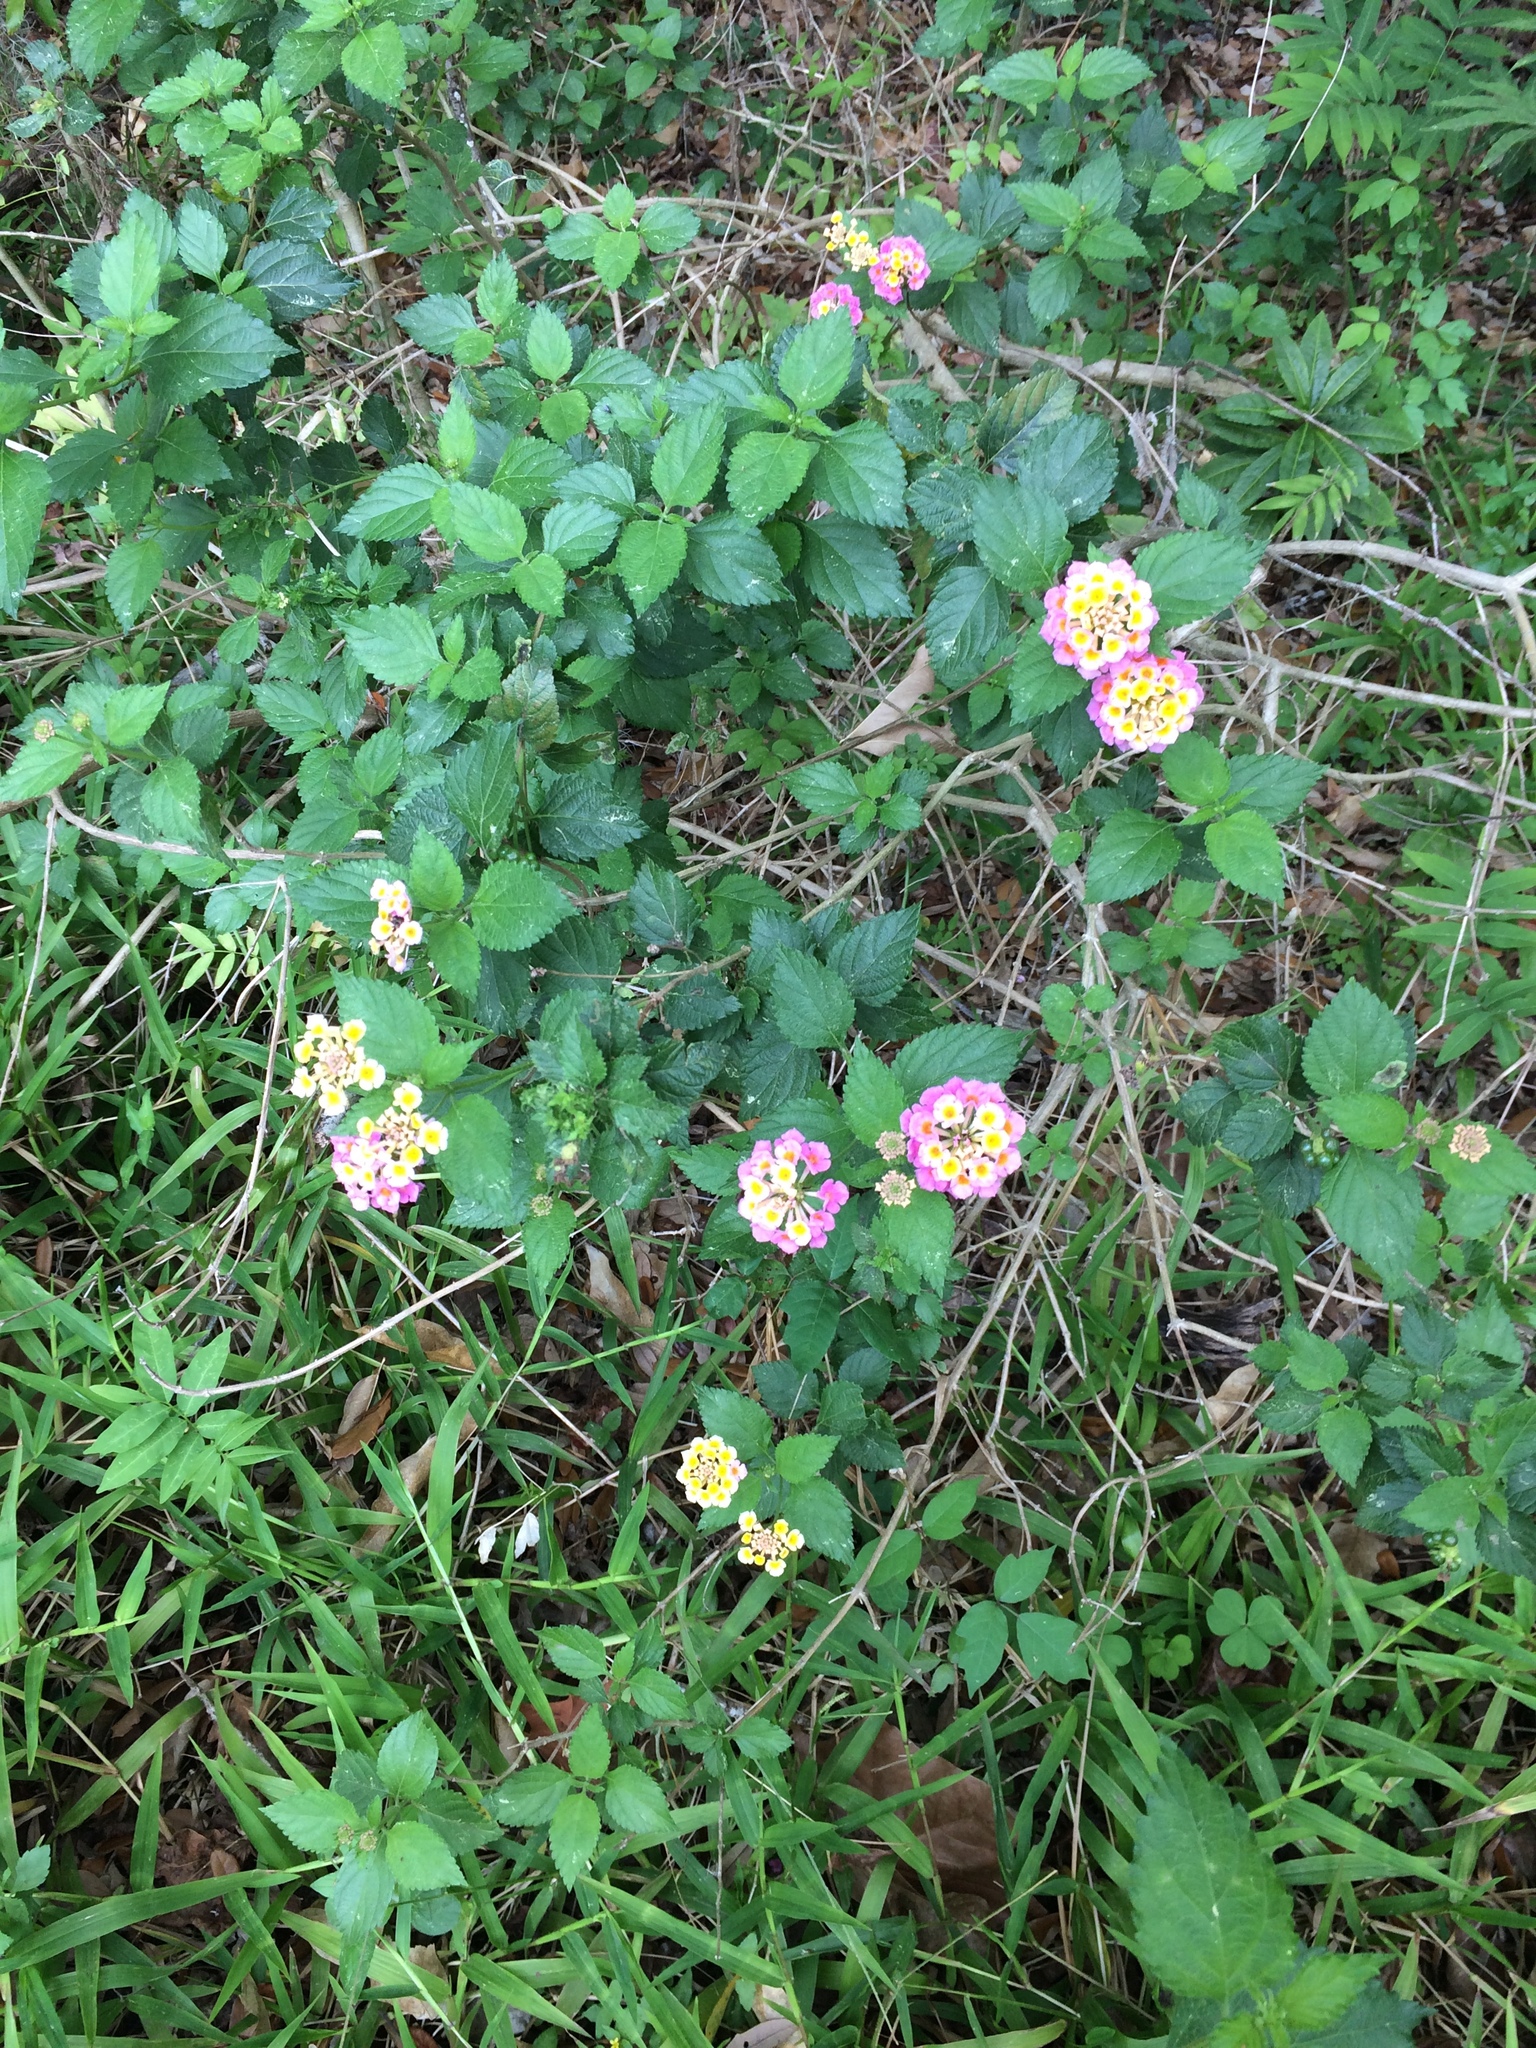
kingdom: Plantae
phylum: Tracheophyta
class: Magnoliopsida
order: Lamiales
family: Verbenaceae
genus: Lantana
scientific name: Lantana camara
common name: Lantana
